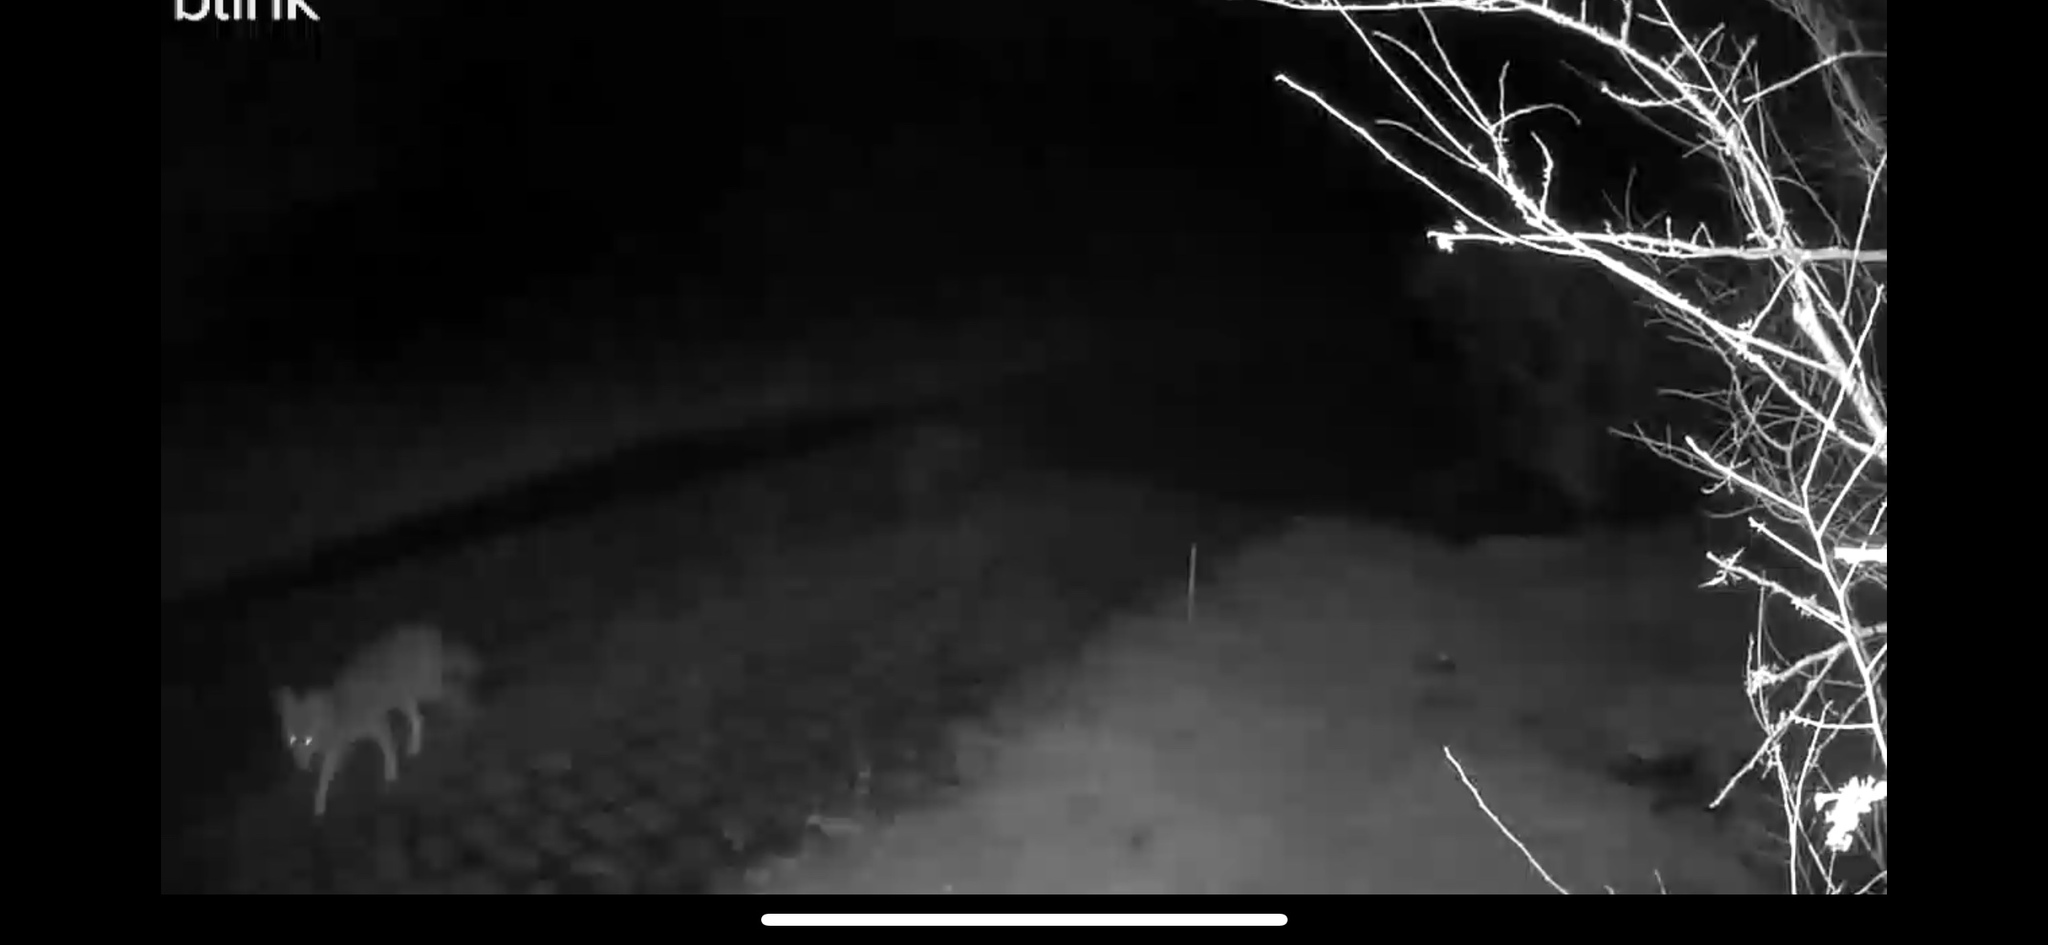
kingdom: Animalia
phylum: Chordata
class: Mammalia
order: Carnivora
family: Canidae
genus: Lycalopex
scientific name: Lycalopex culpaeus
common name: Culpeo
